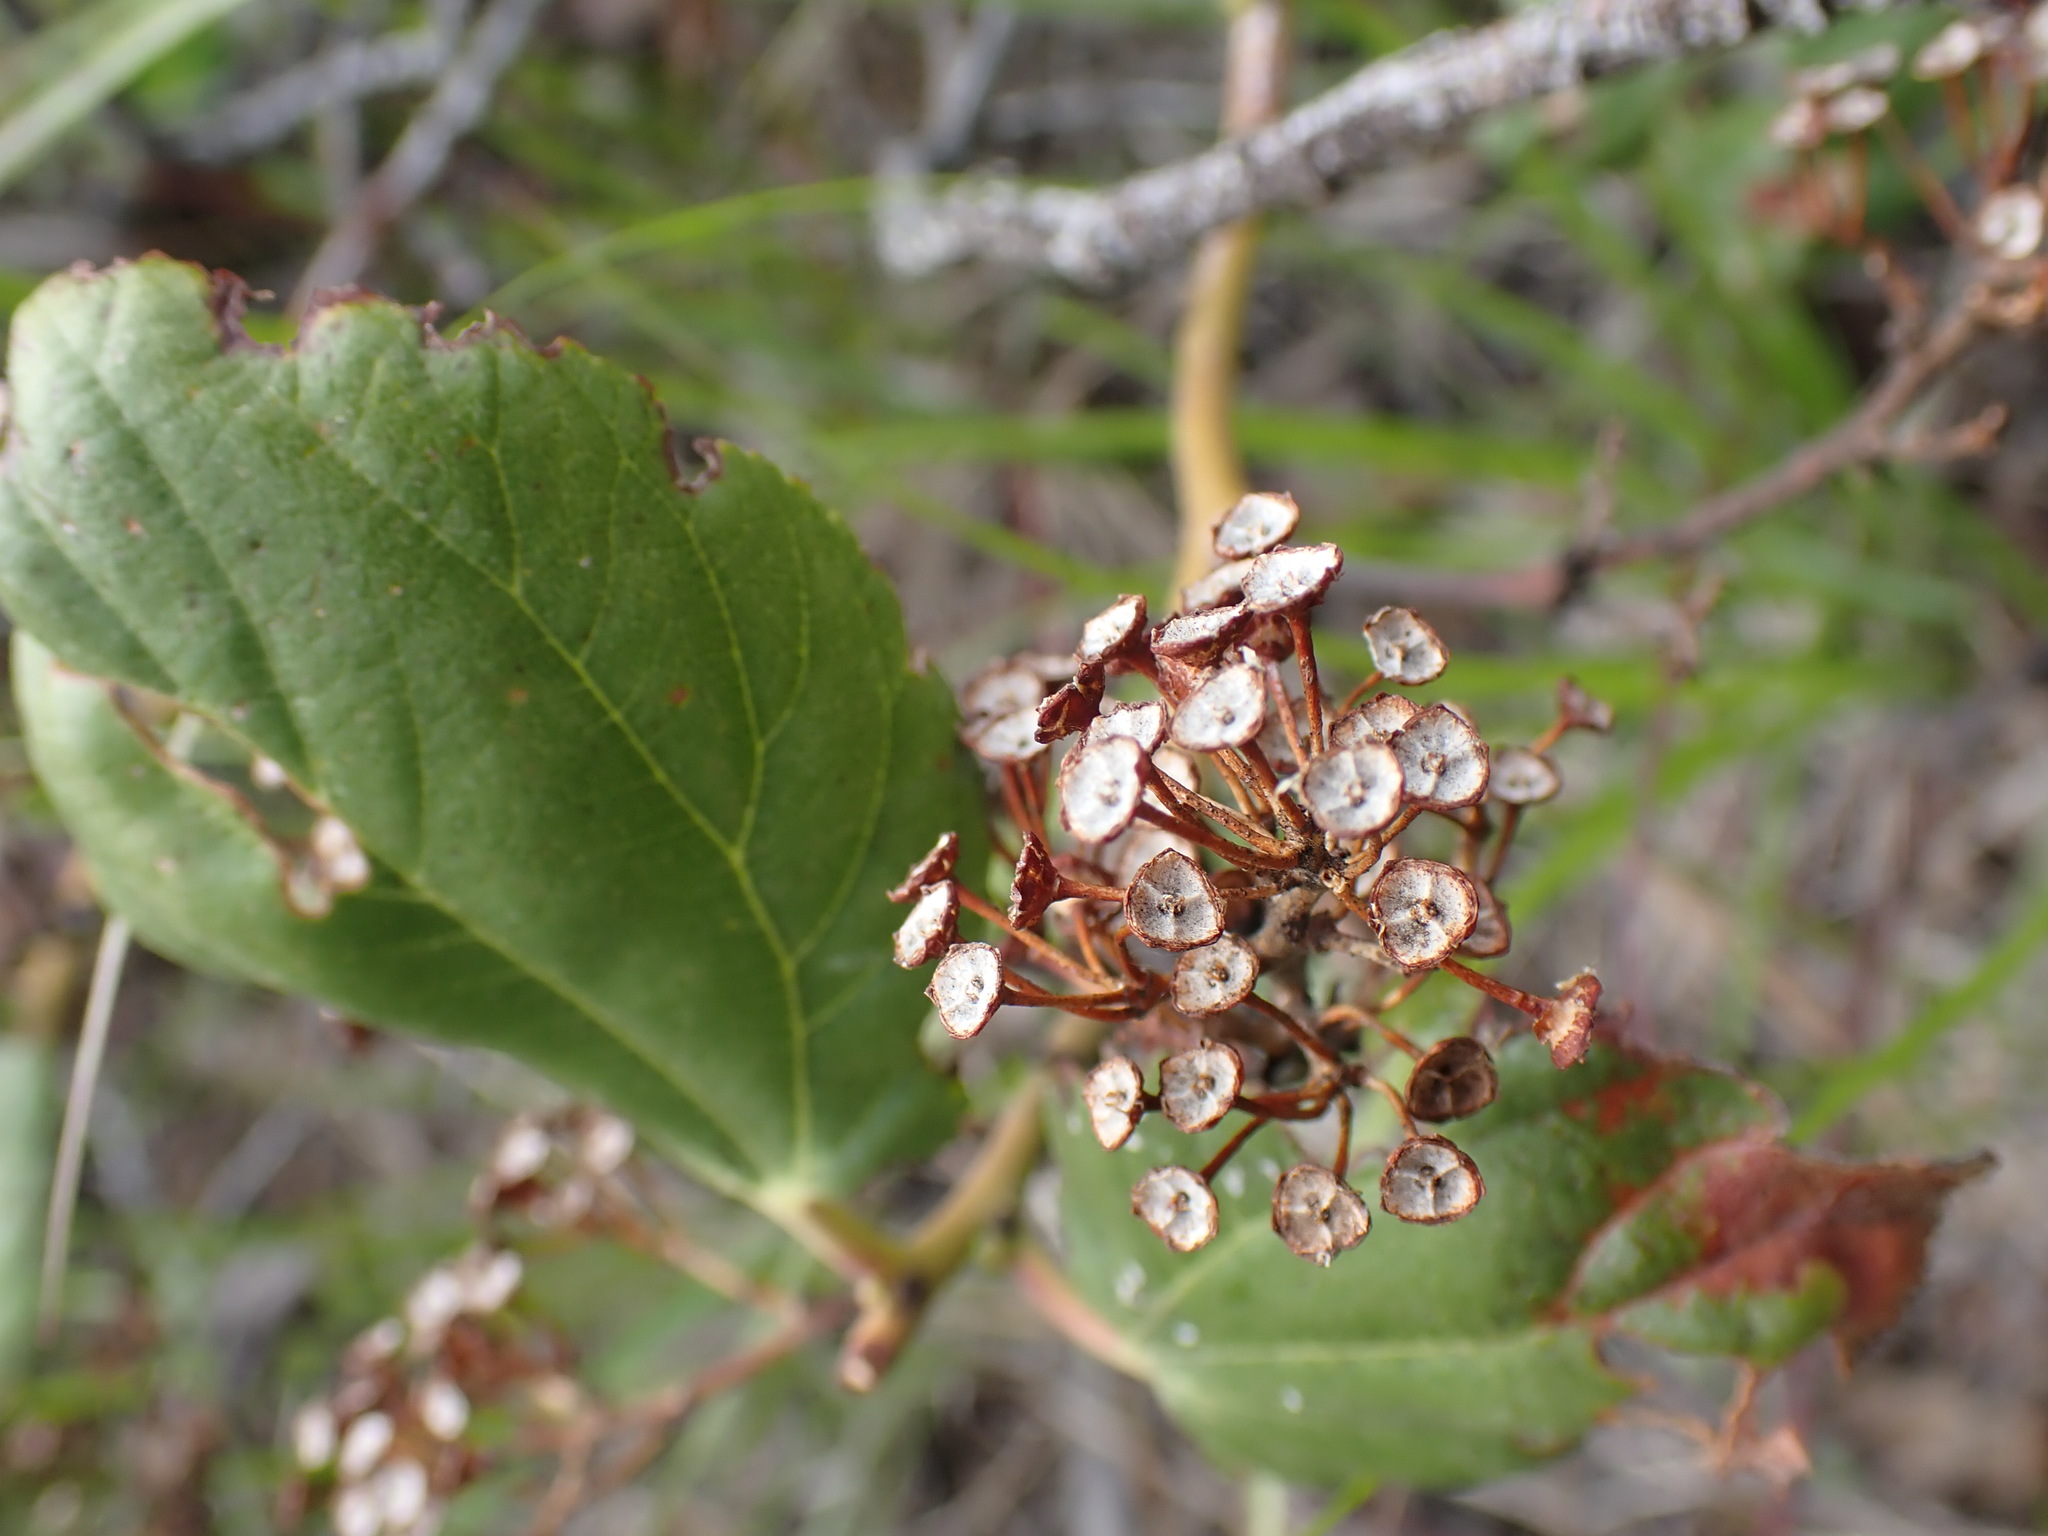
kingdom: Plantae
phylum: Tracheophyta
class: Magnoliopsida
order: Rosales
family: Rhamnaceae
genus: Ceanothus
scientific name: Ceanothus velutinus
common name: Snowbrush
